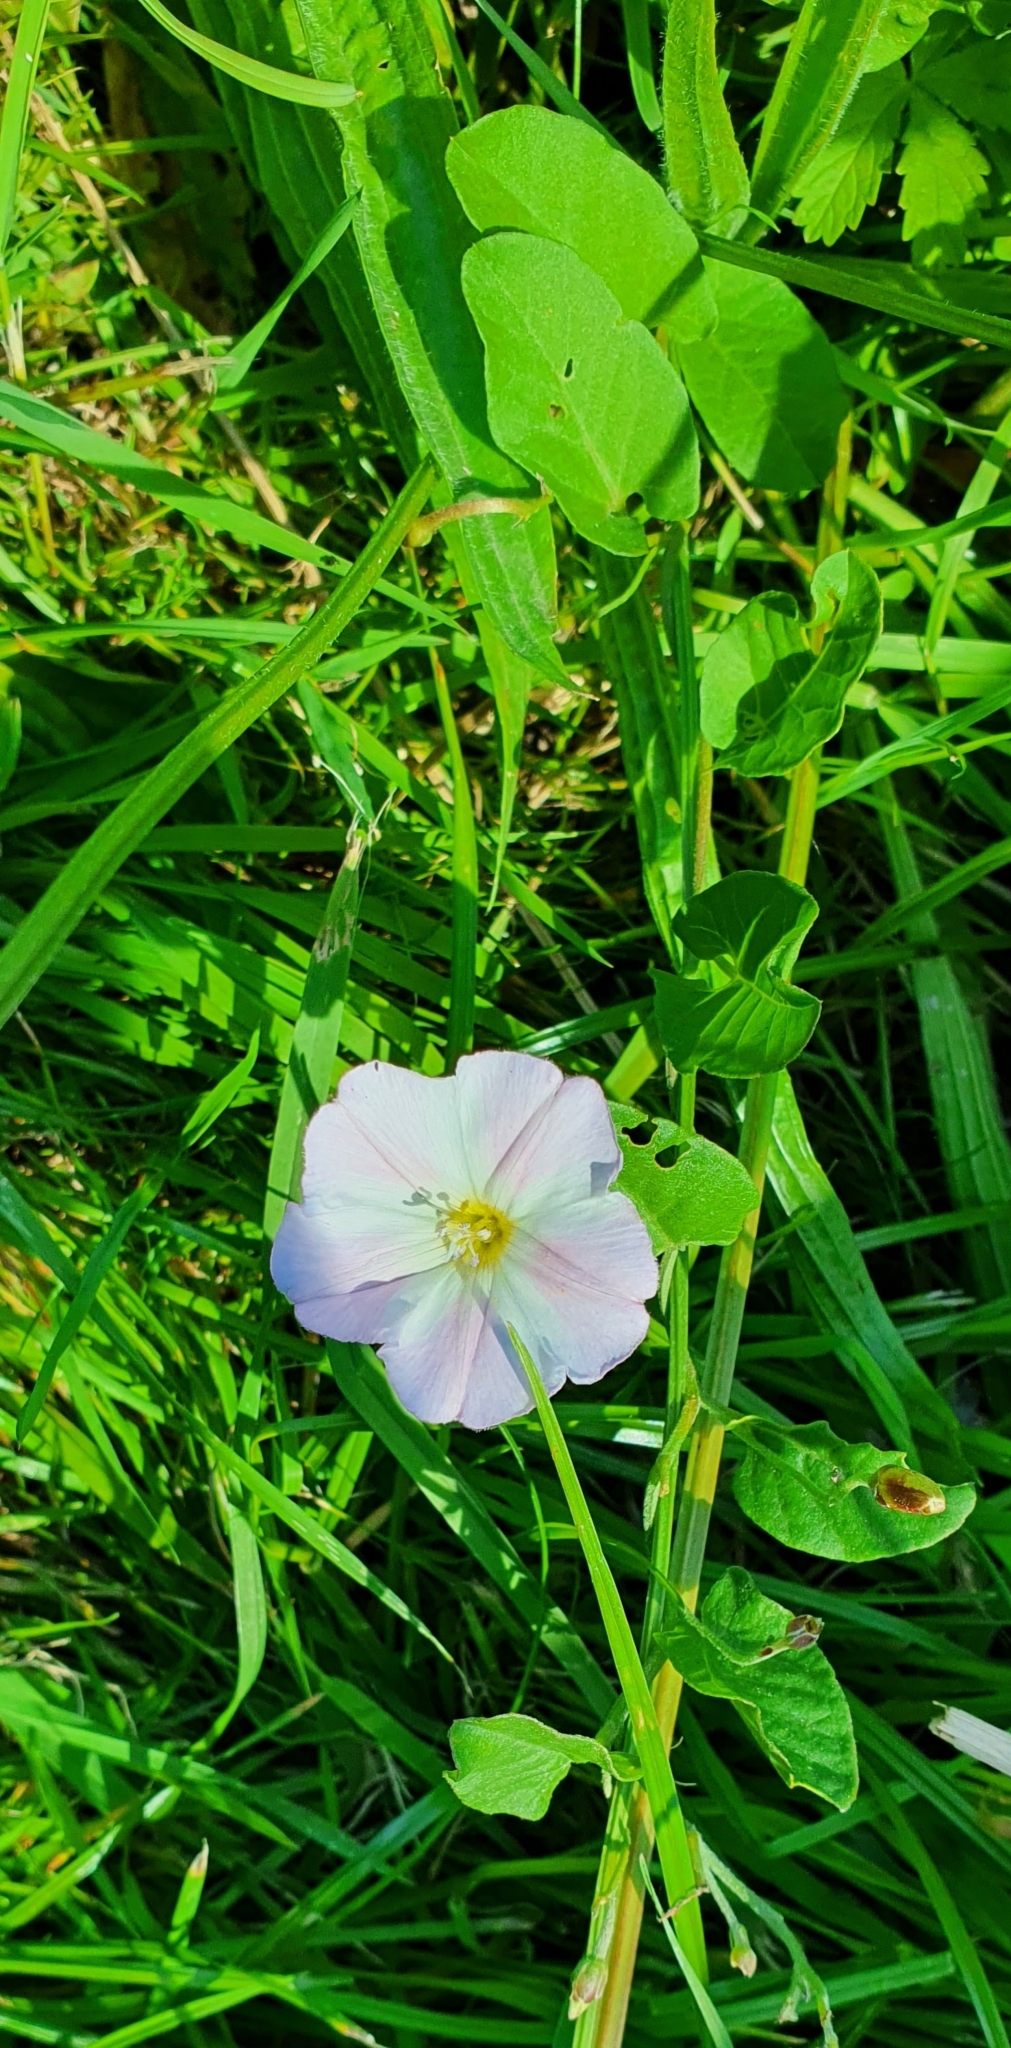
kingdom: Plantae
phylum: Tracheophyta
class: Magnoliopsida
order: Solanales
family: Convolvulaceae
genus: Convolvulus
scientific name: Convolvulus arvensis
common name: Field bindweed
